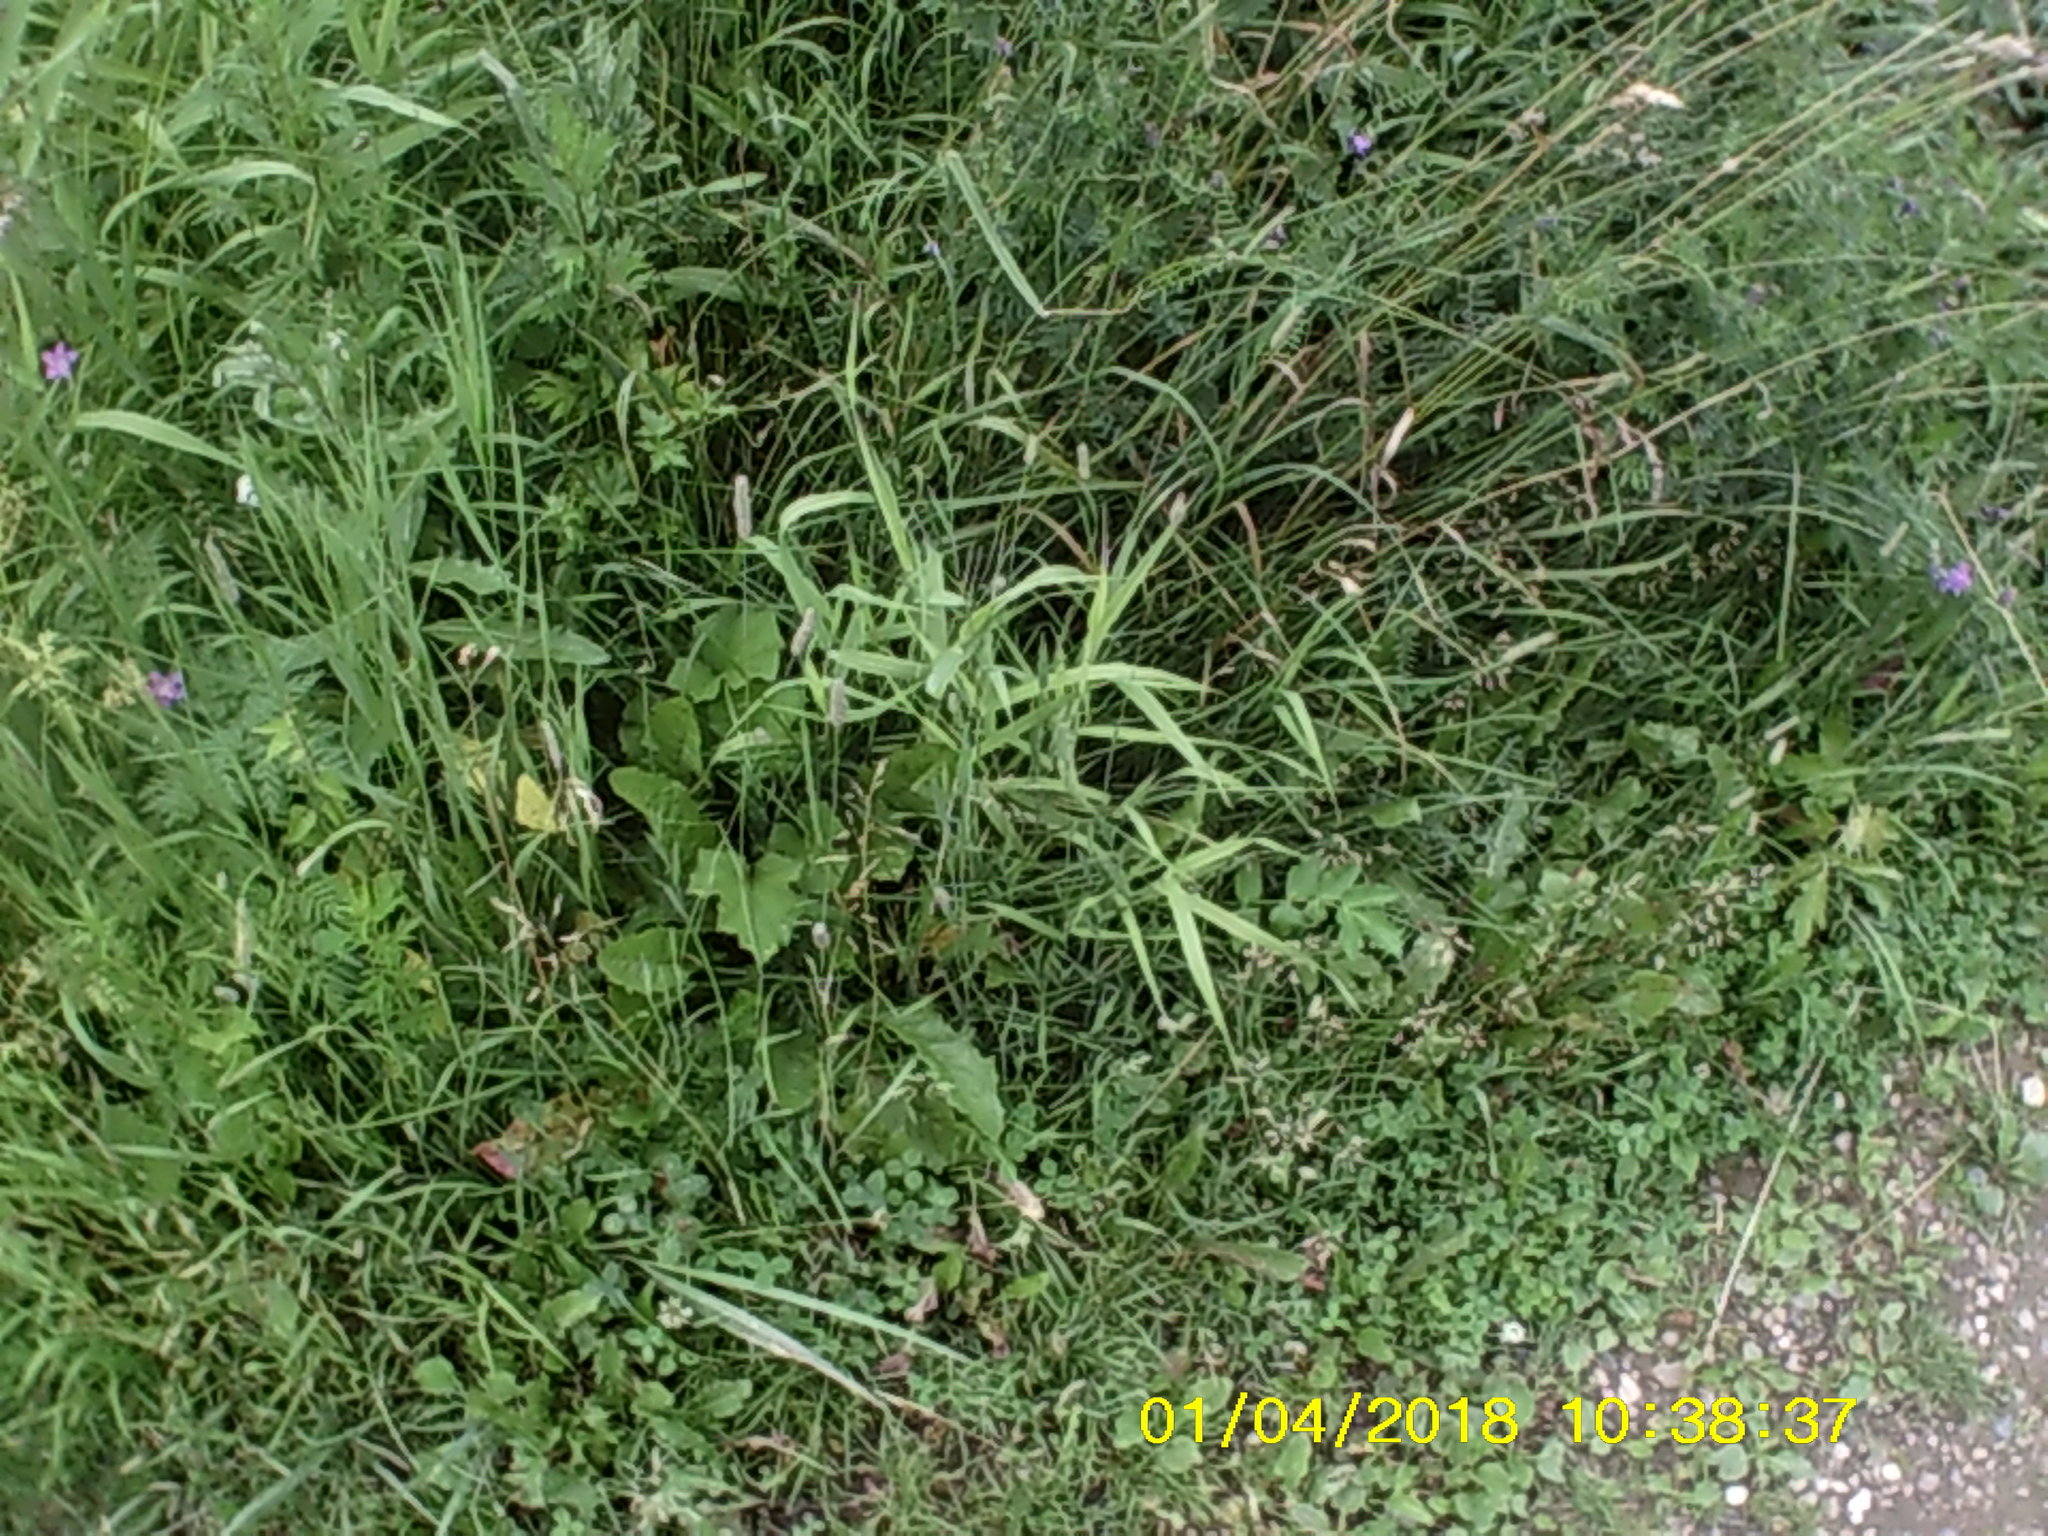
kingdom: Plantae
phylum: Tracheophyta
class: Liliopsida
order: Poales
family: Poaceae
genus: Phleum
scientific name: Phleum pratense
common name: Timothy grass
